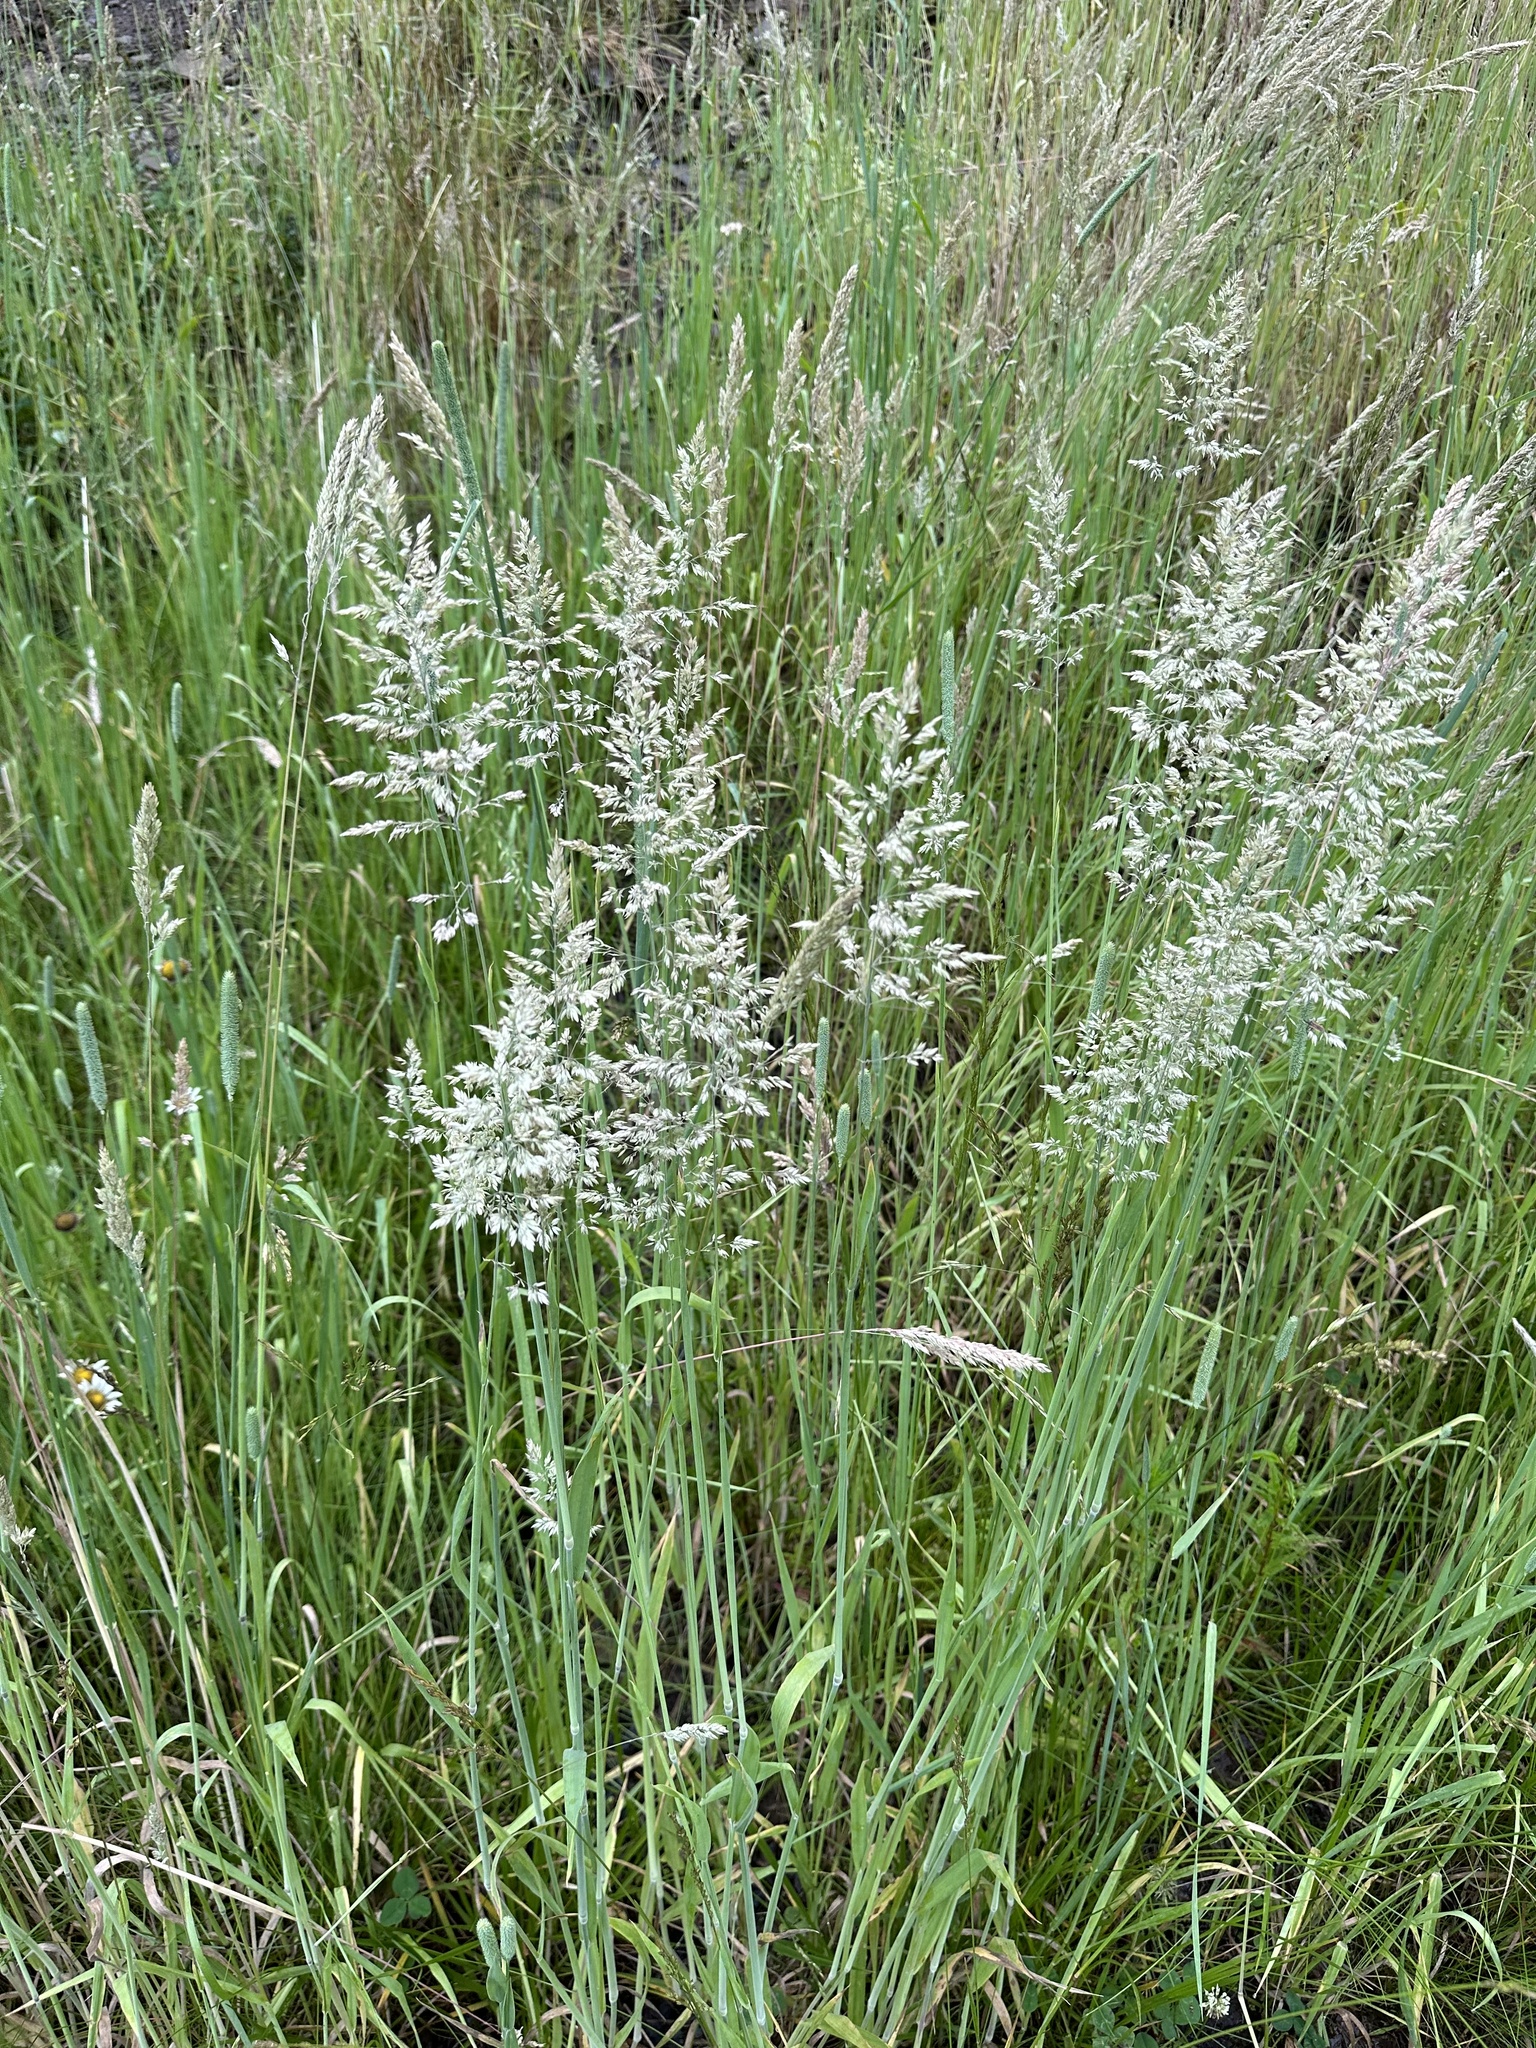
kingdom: Plantae
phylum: Tracheophyta
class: Liliopsida
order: Poales
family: Poaceae
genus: Holcus
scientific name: Holcus lanatus
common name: Yorkshire-fog
